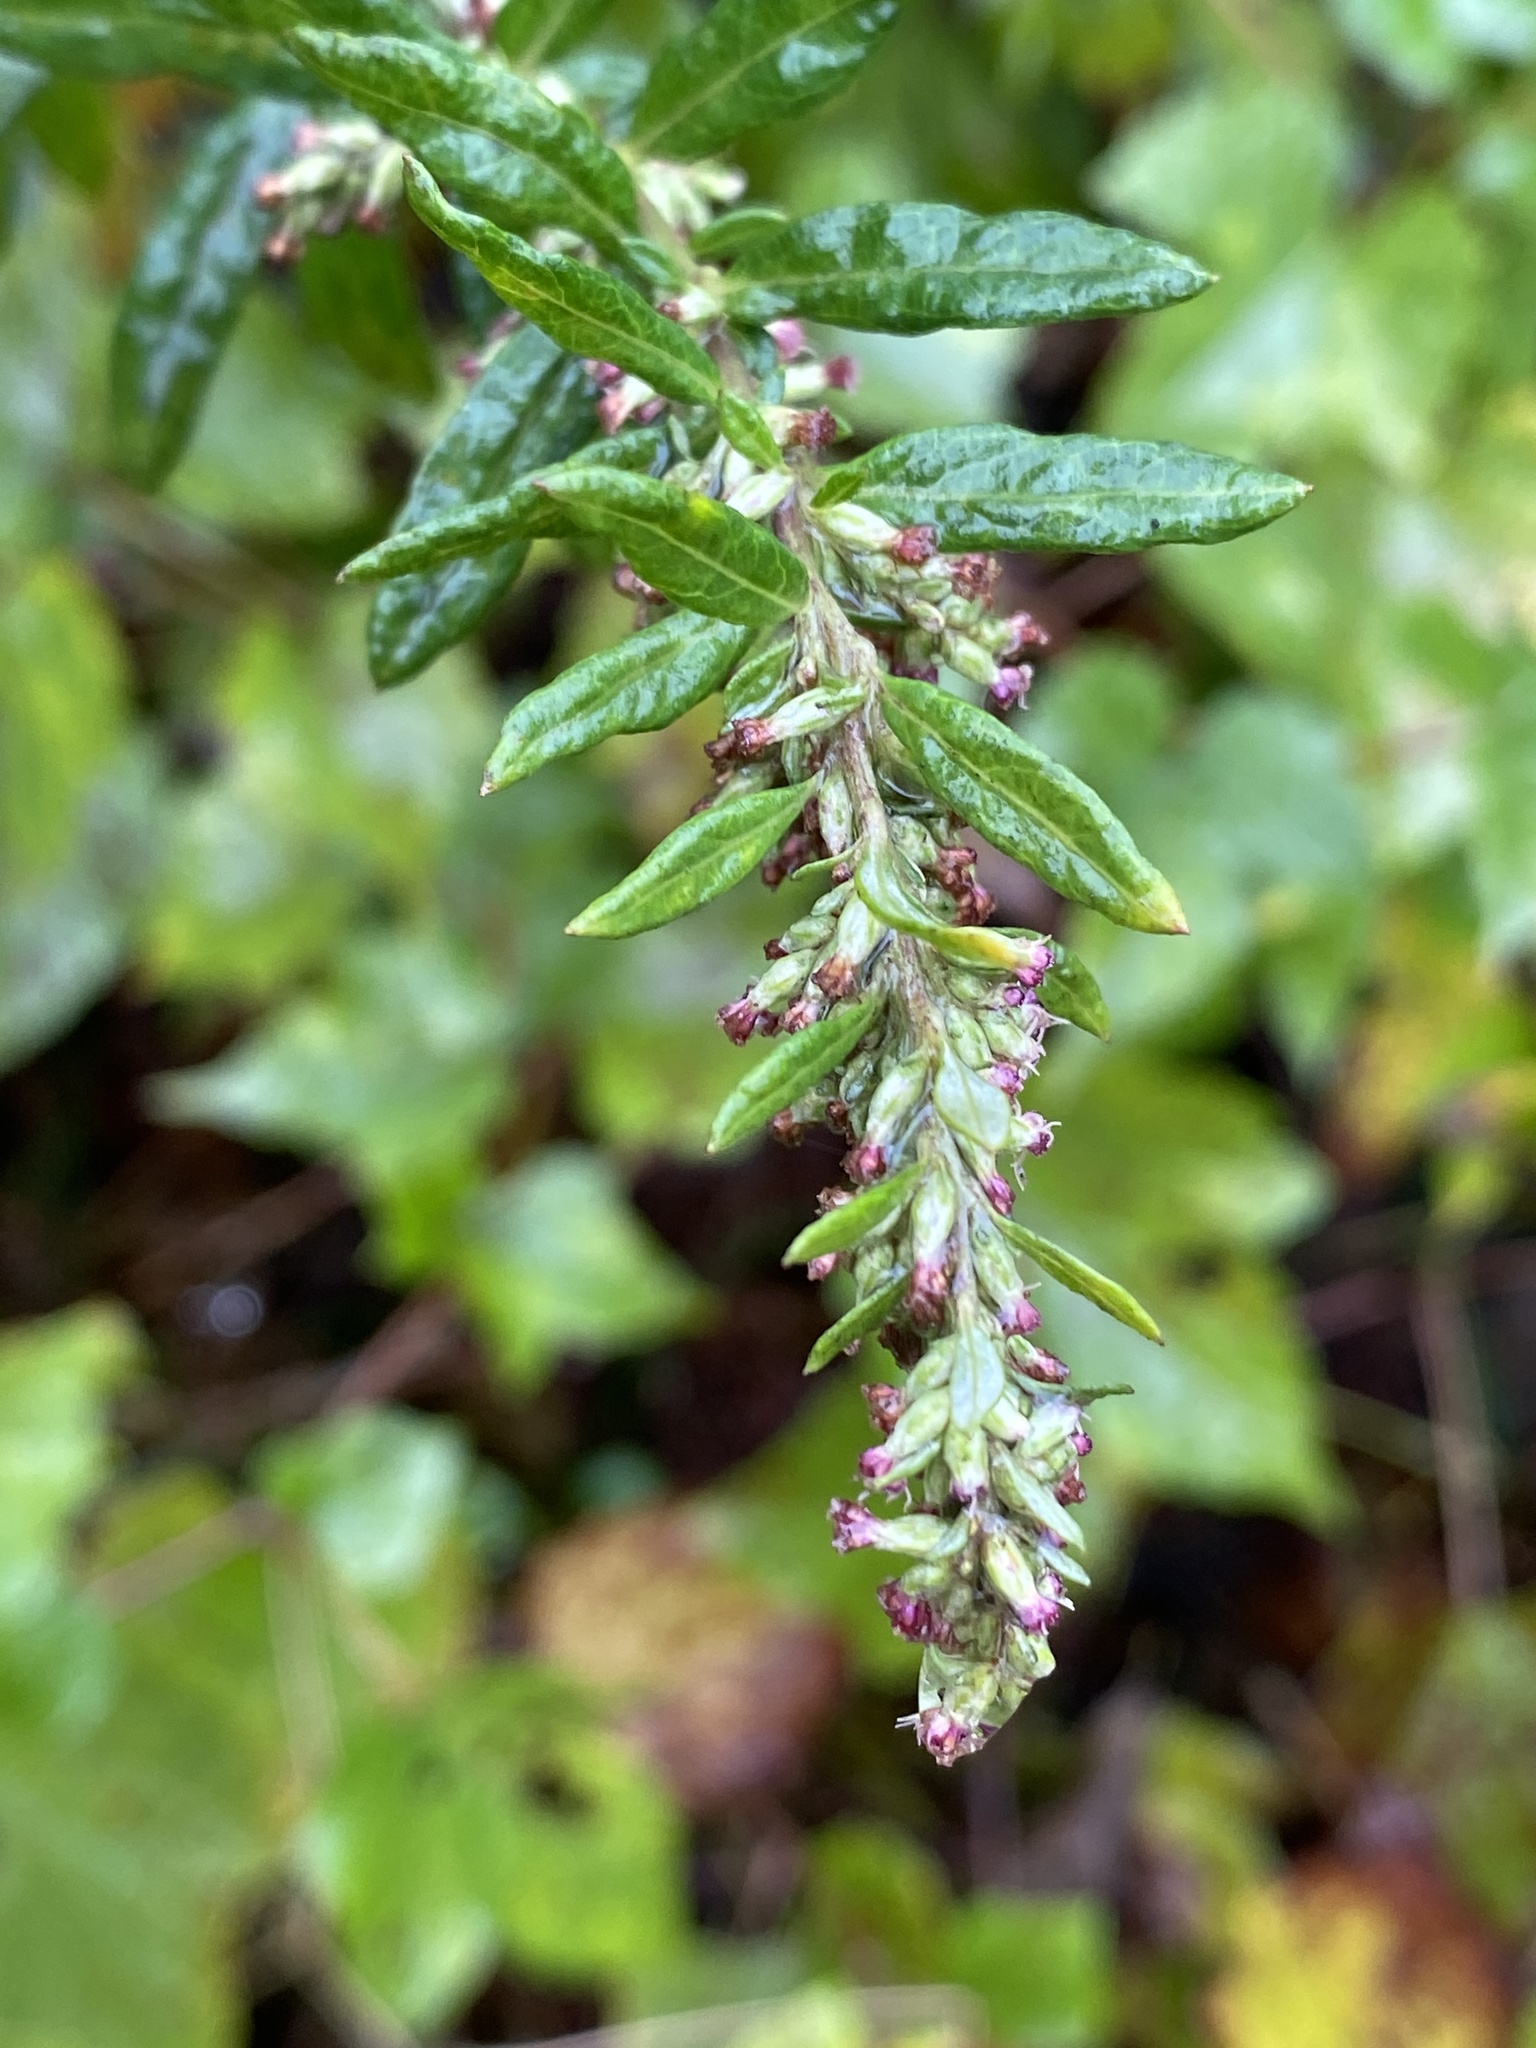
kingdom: Plantae
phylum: Tracheophyta
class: Magnoliopsida
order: Asterales
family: Asteraceae
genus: Artemisia
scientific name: Artemisia vulgaris
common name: Mugwort
